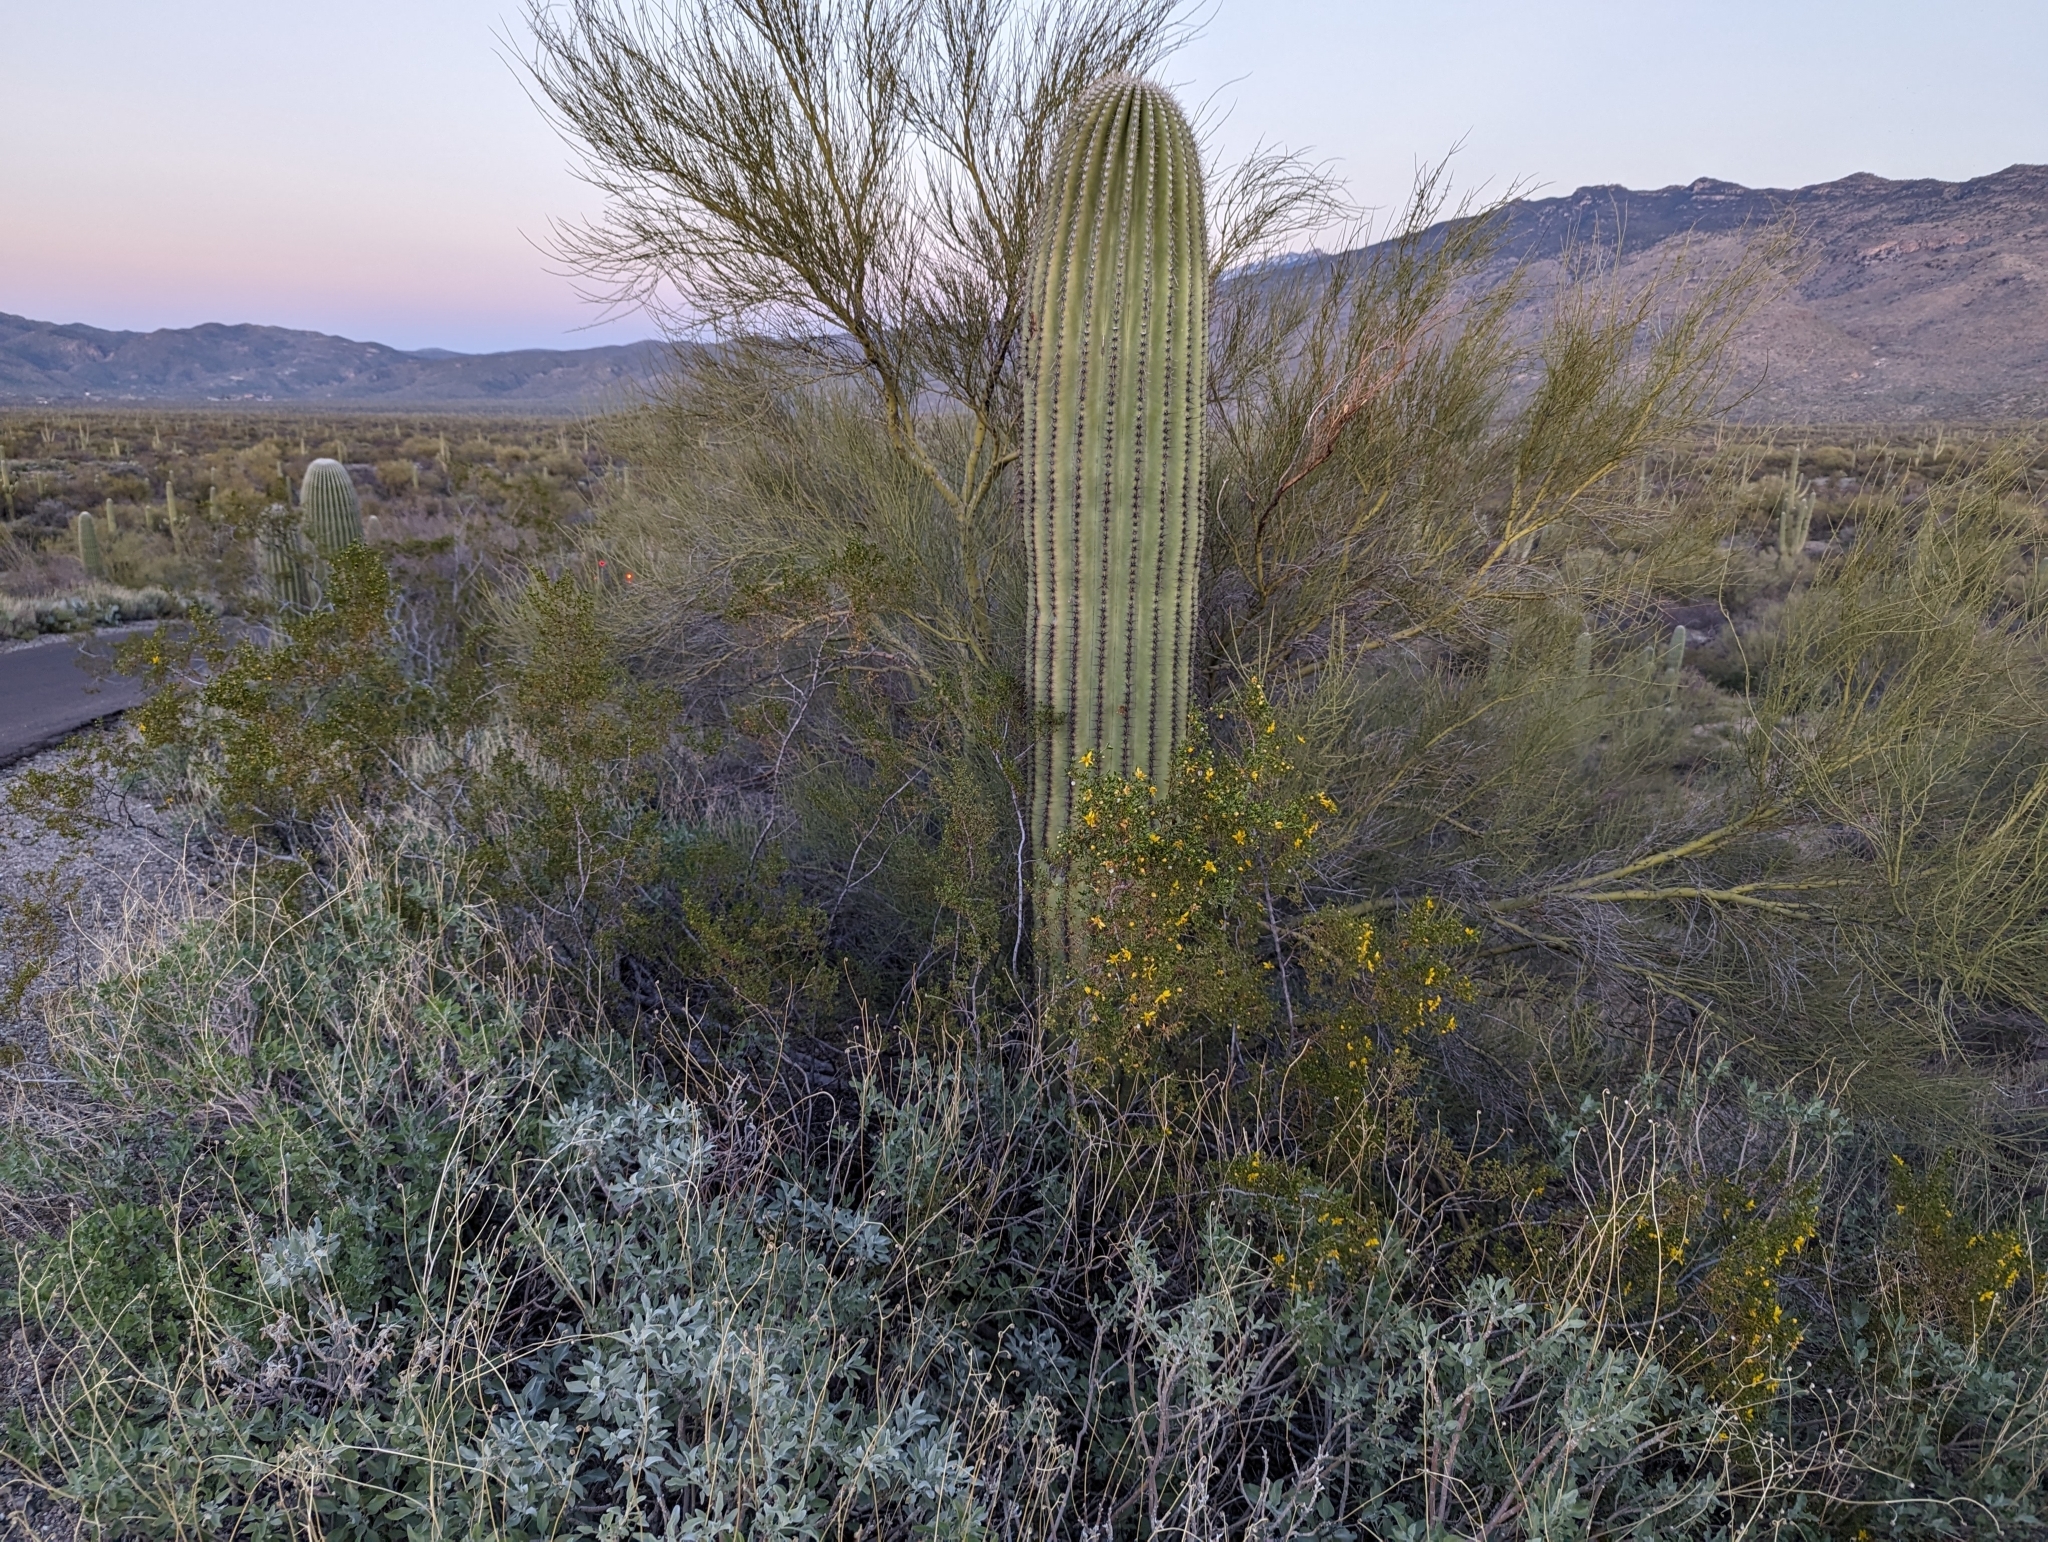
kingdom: Plantae
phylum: Tracheophyta
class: Magnoliopsida
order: Zygophyllales
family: Zygophyllaceae
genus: Larrea
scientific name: Larrea tridentata
